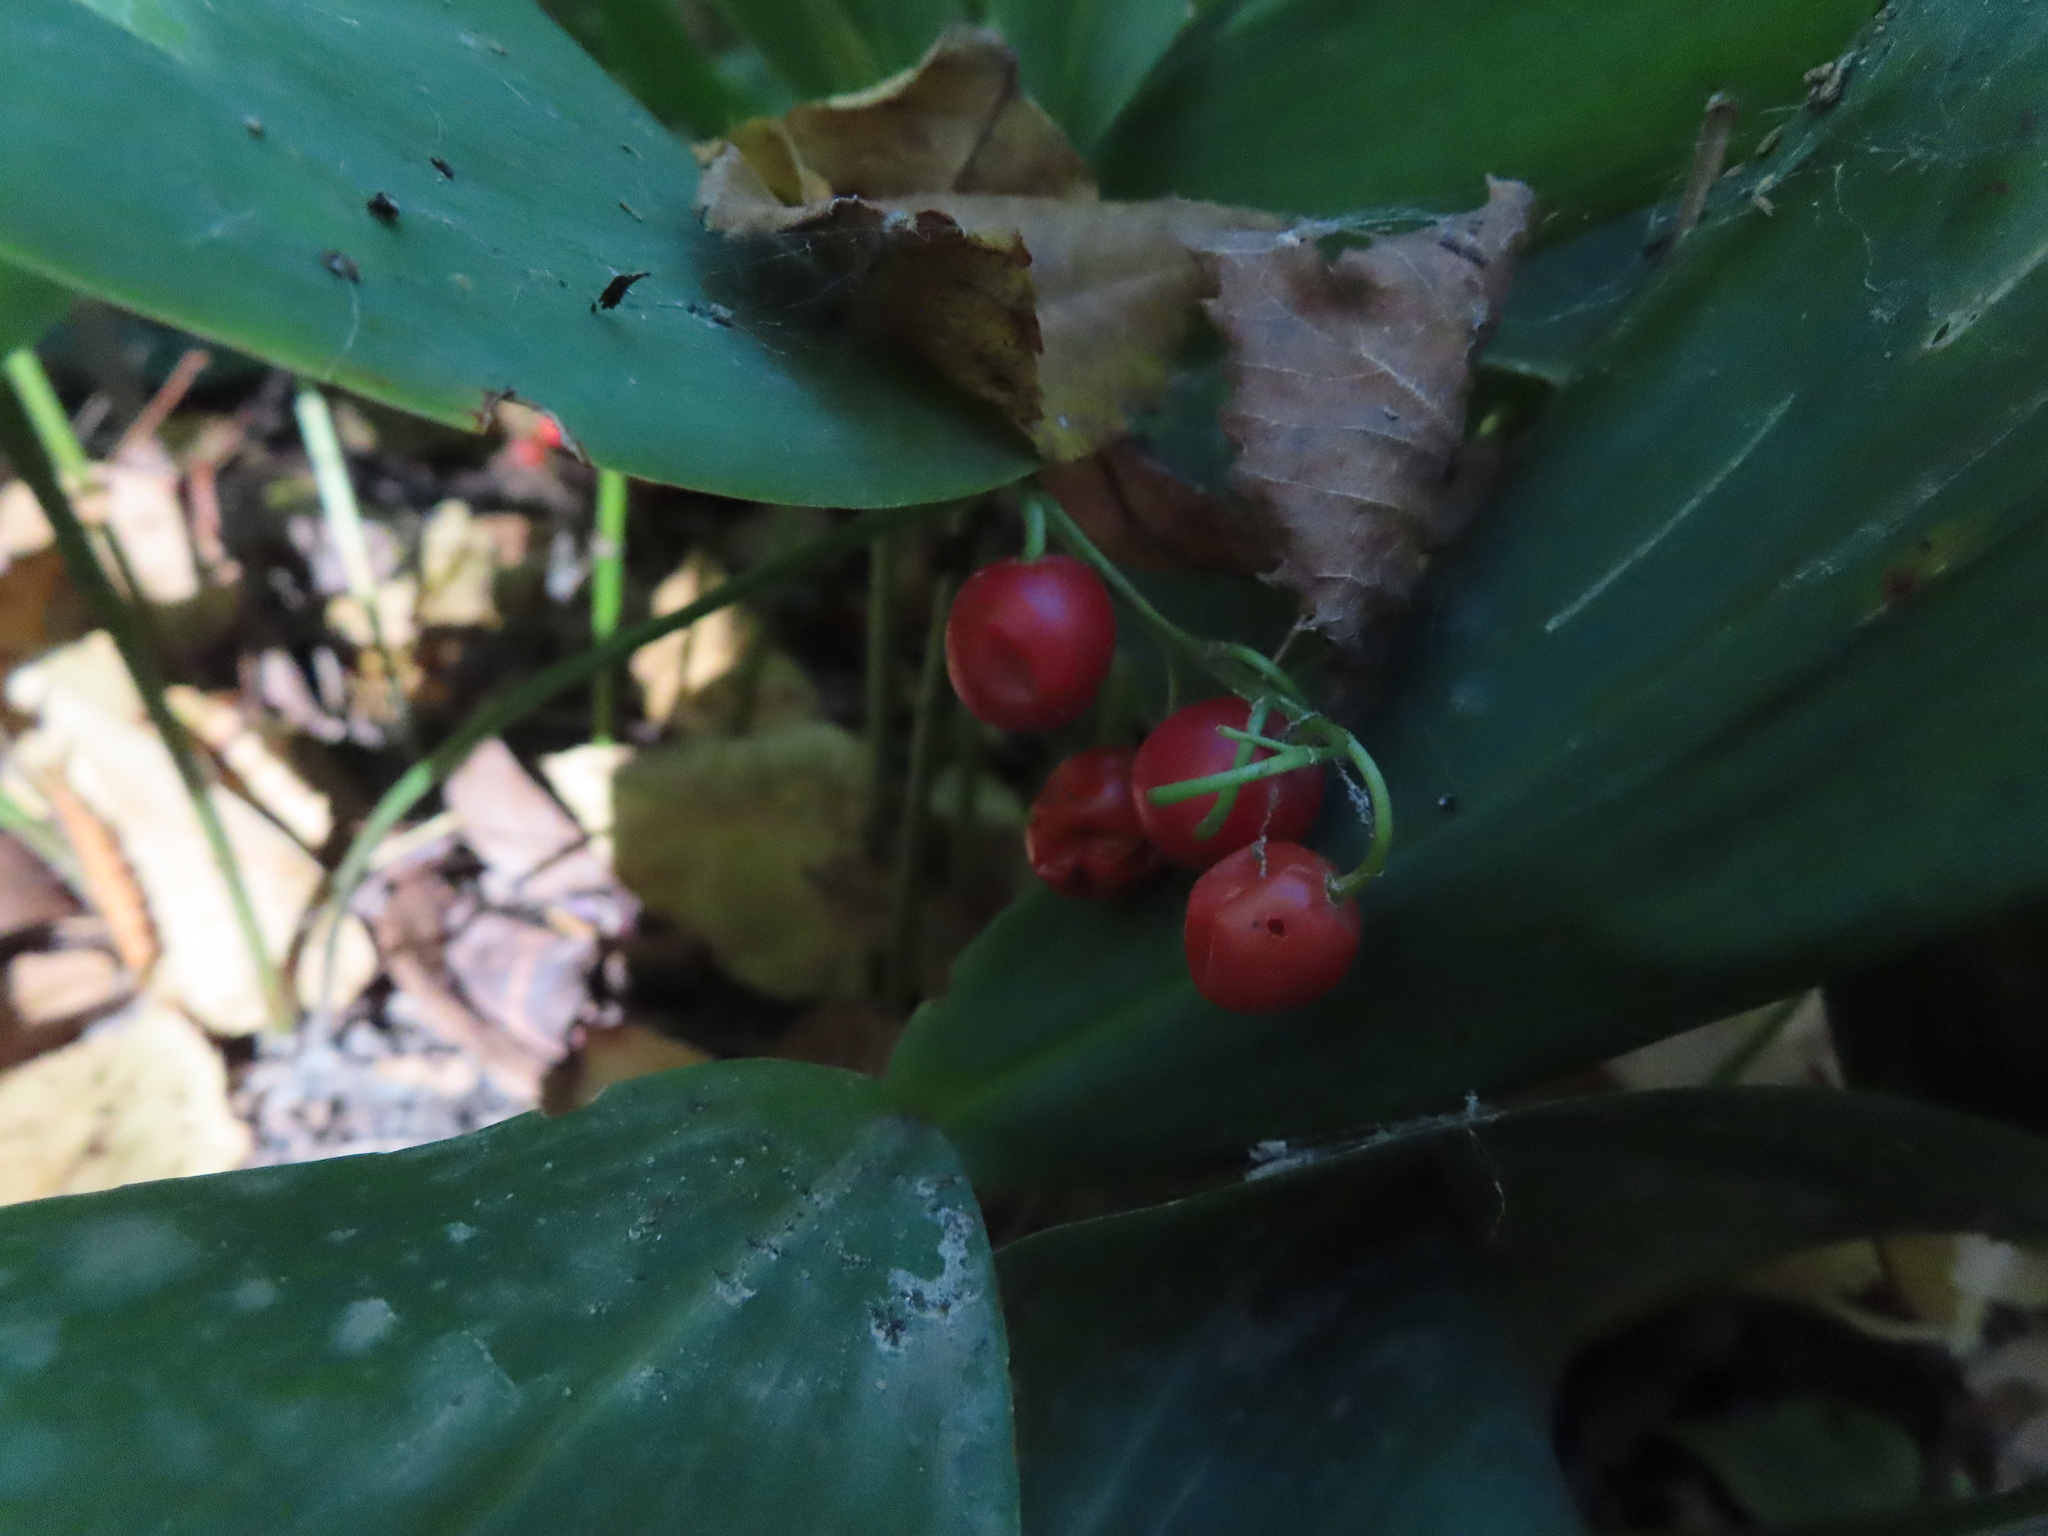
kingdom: Plantae
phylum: Tracheophyta
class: Liliopsida
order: Asparagales
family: Asparagaceae
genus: Convallaria
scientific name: Convallaria majalis
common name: Lily-of-the-valley
